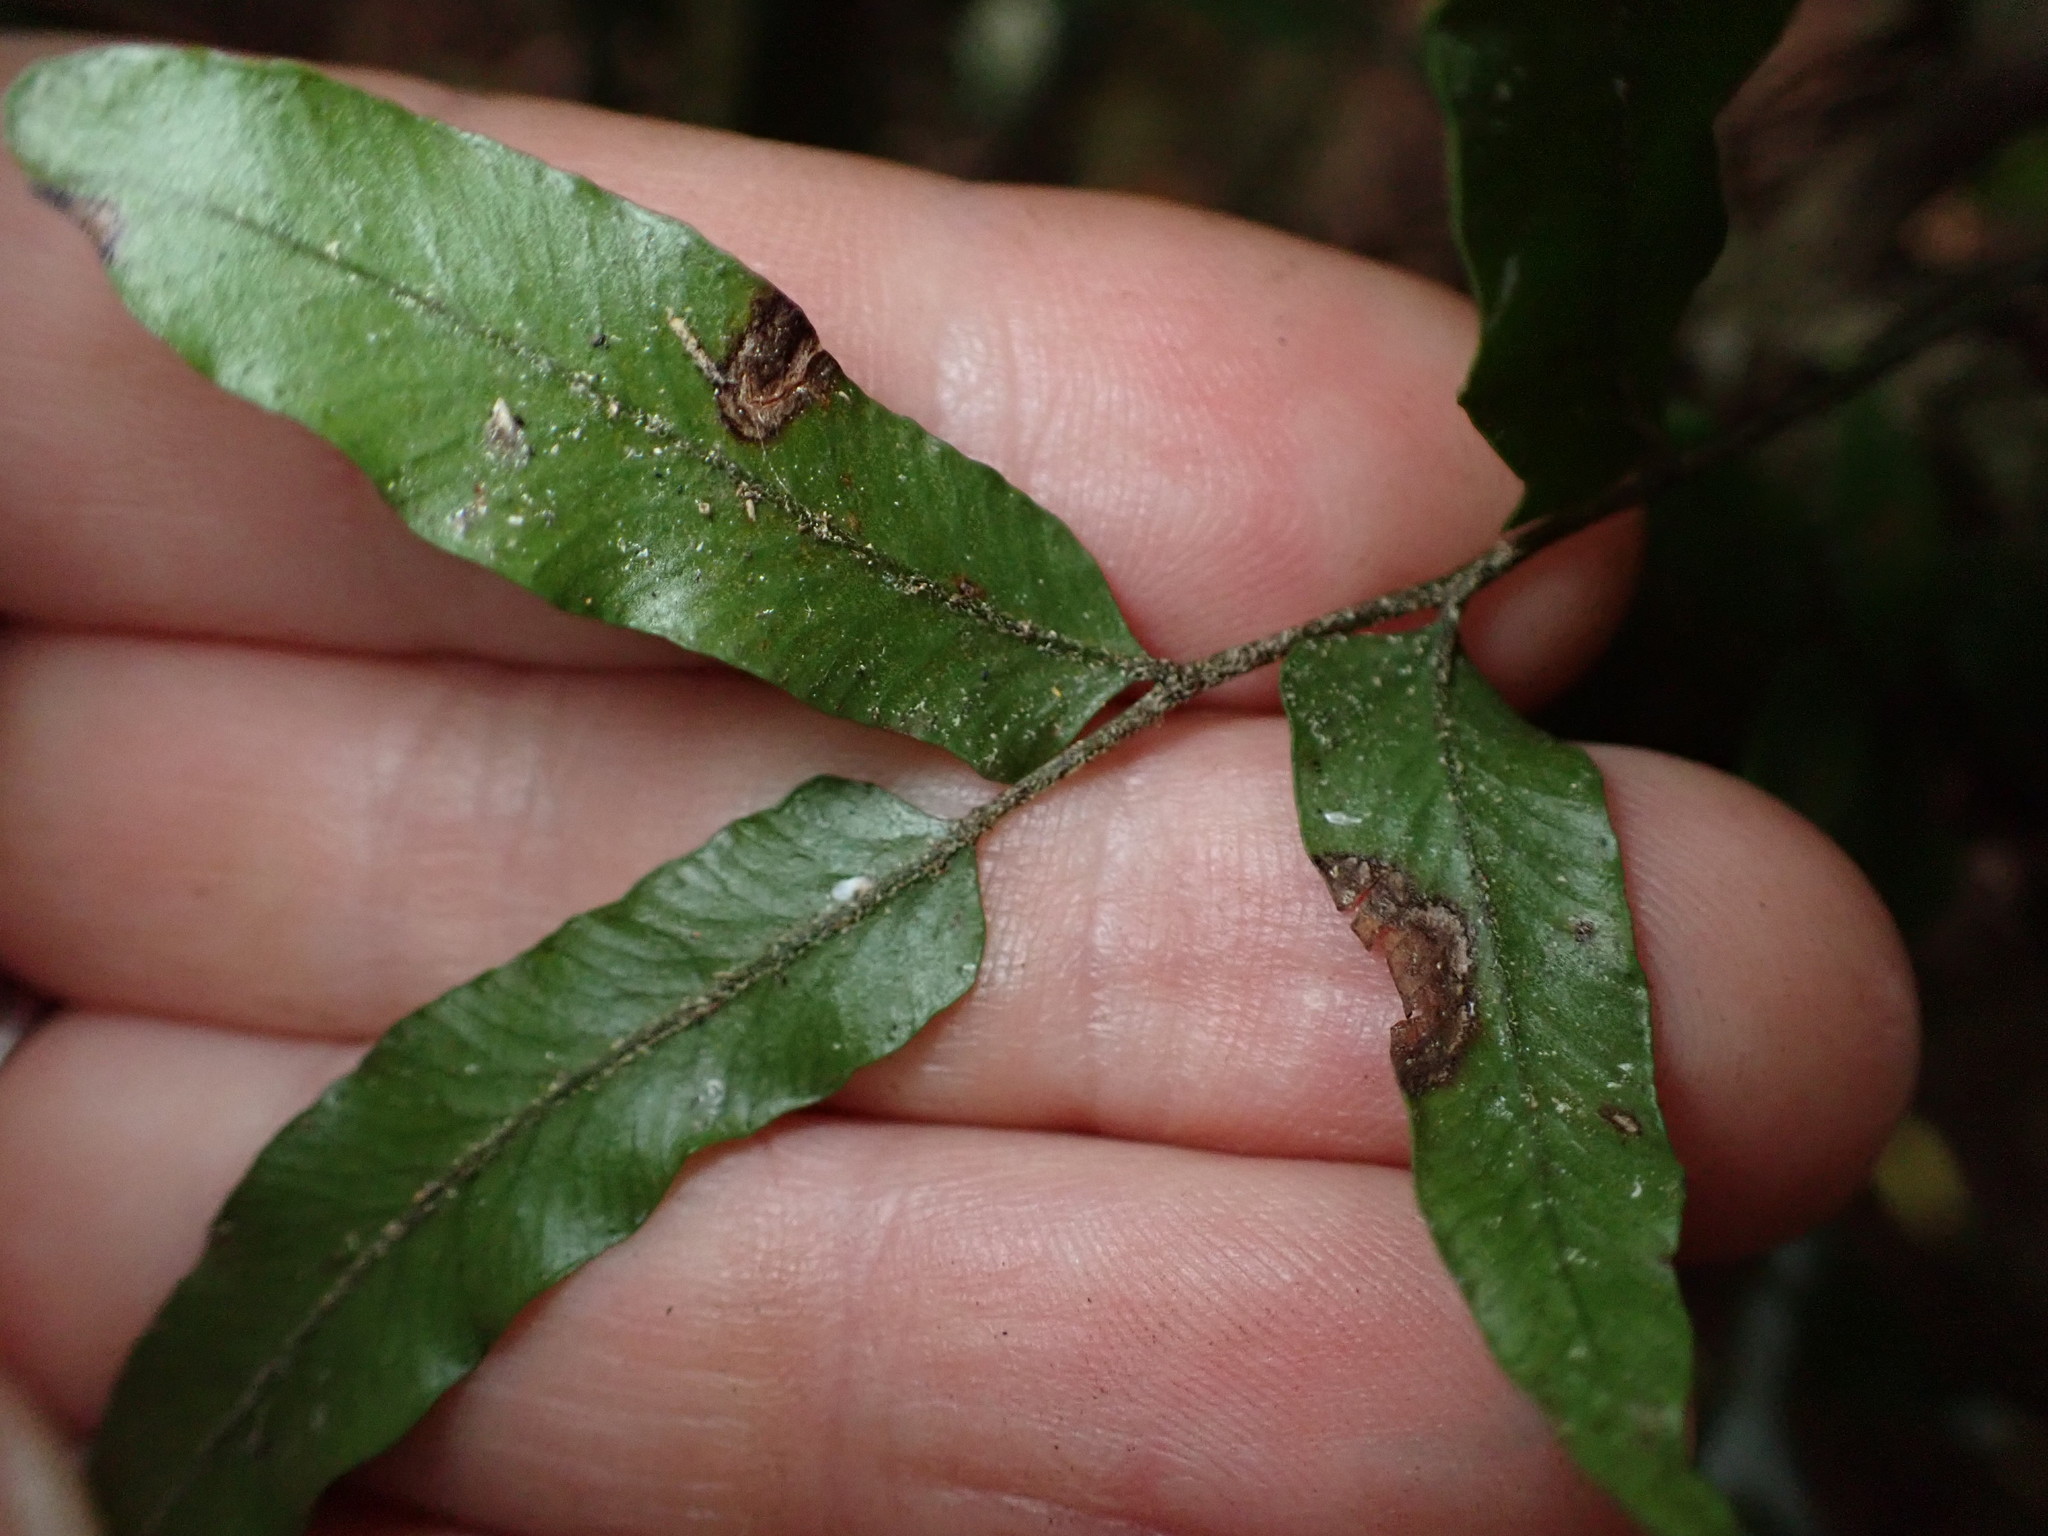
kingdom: Plantae
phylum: Tracheophyta
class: Polypodiopsida
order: Polypodiales
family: Tectariaceae
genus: Arthropteris
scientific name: Arthropteris tenella
